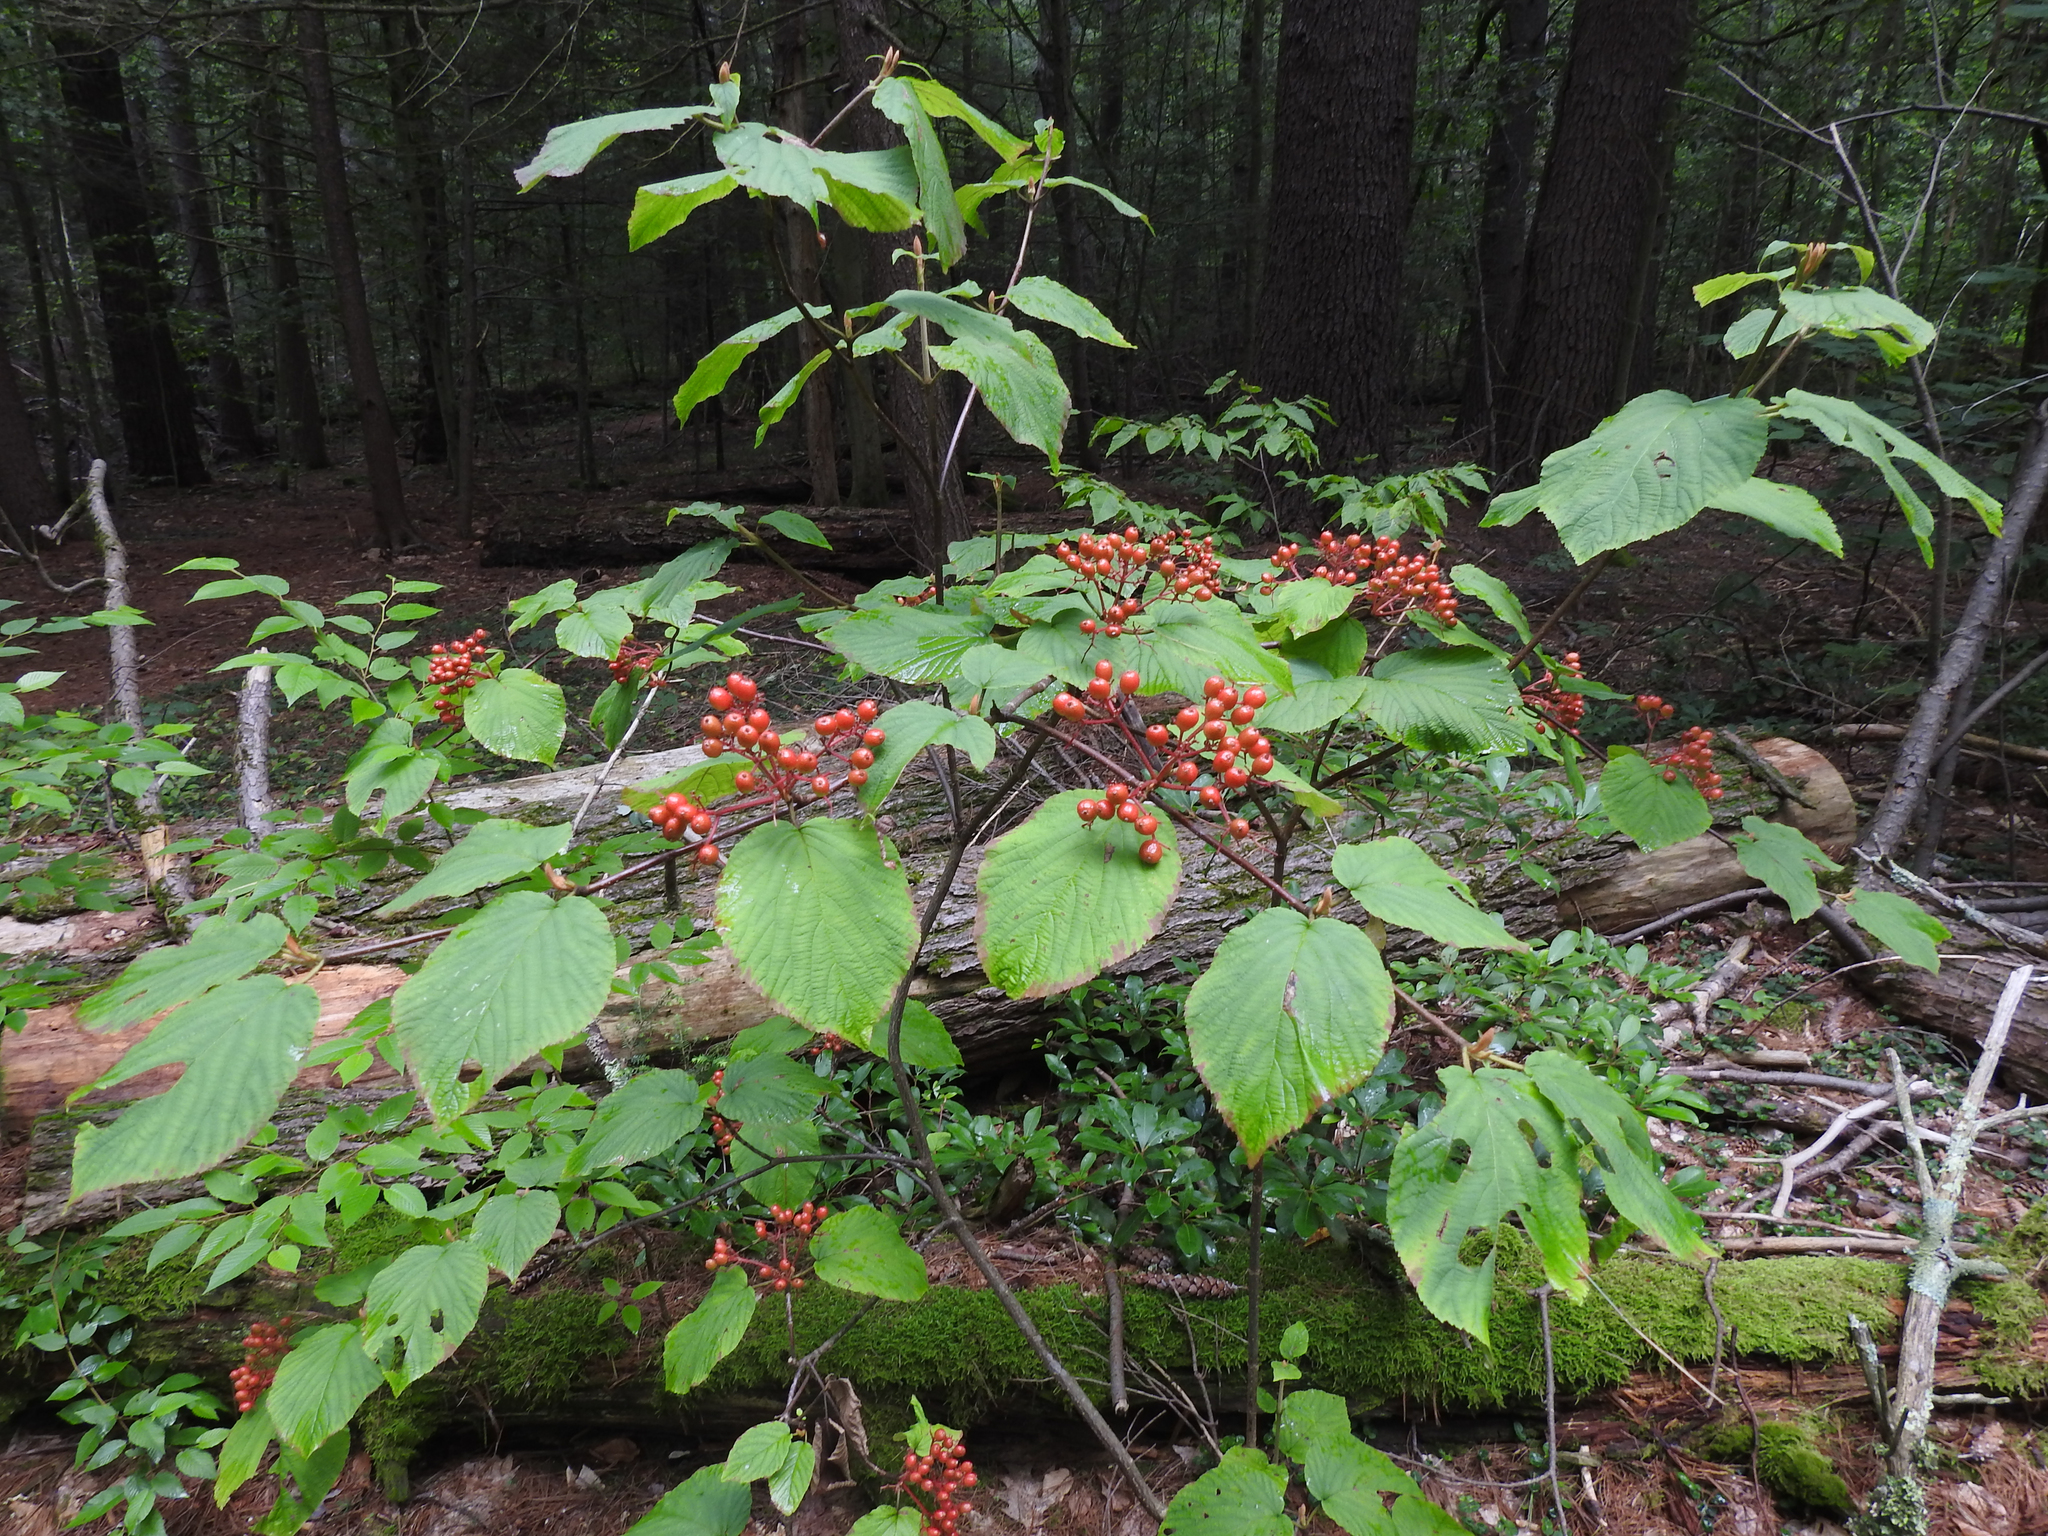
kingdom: Plantae
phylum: Tracheophyta
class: Magnoliopsida
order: Dipsacales
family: Viburnaceae
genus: Viburnum
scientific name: Viburnum lantanoides
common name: Hobblebush
